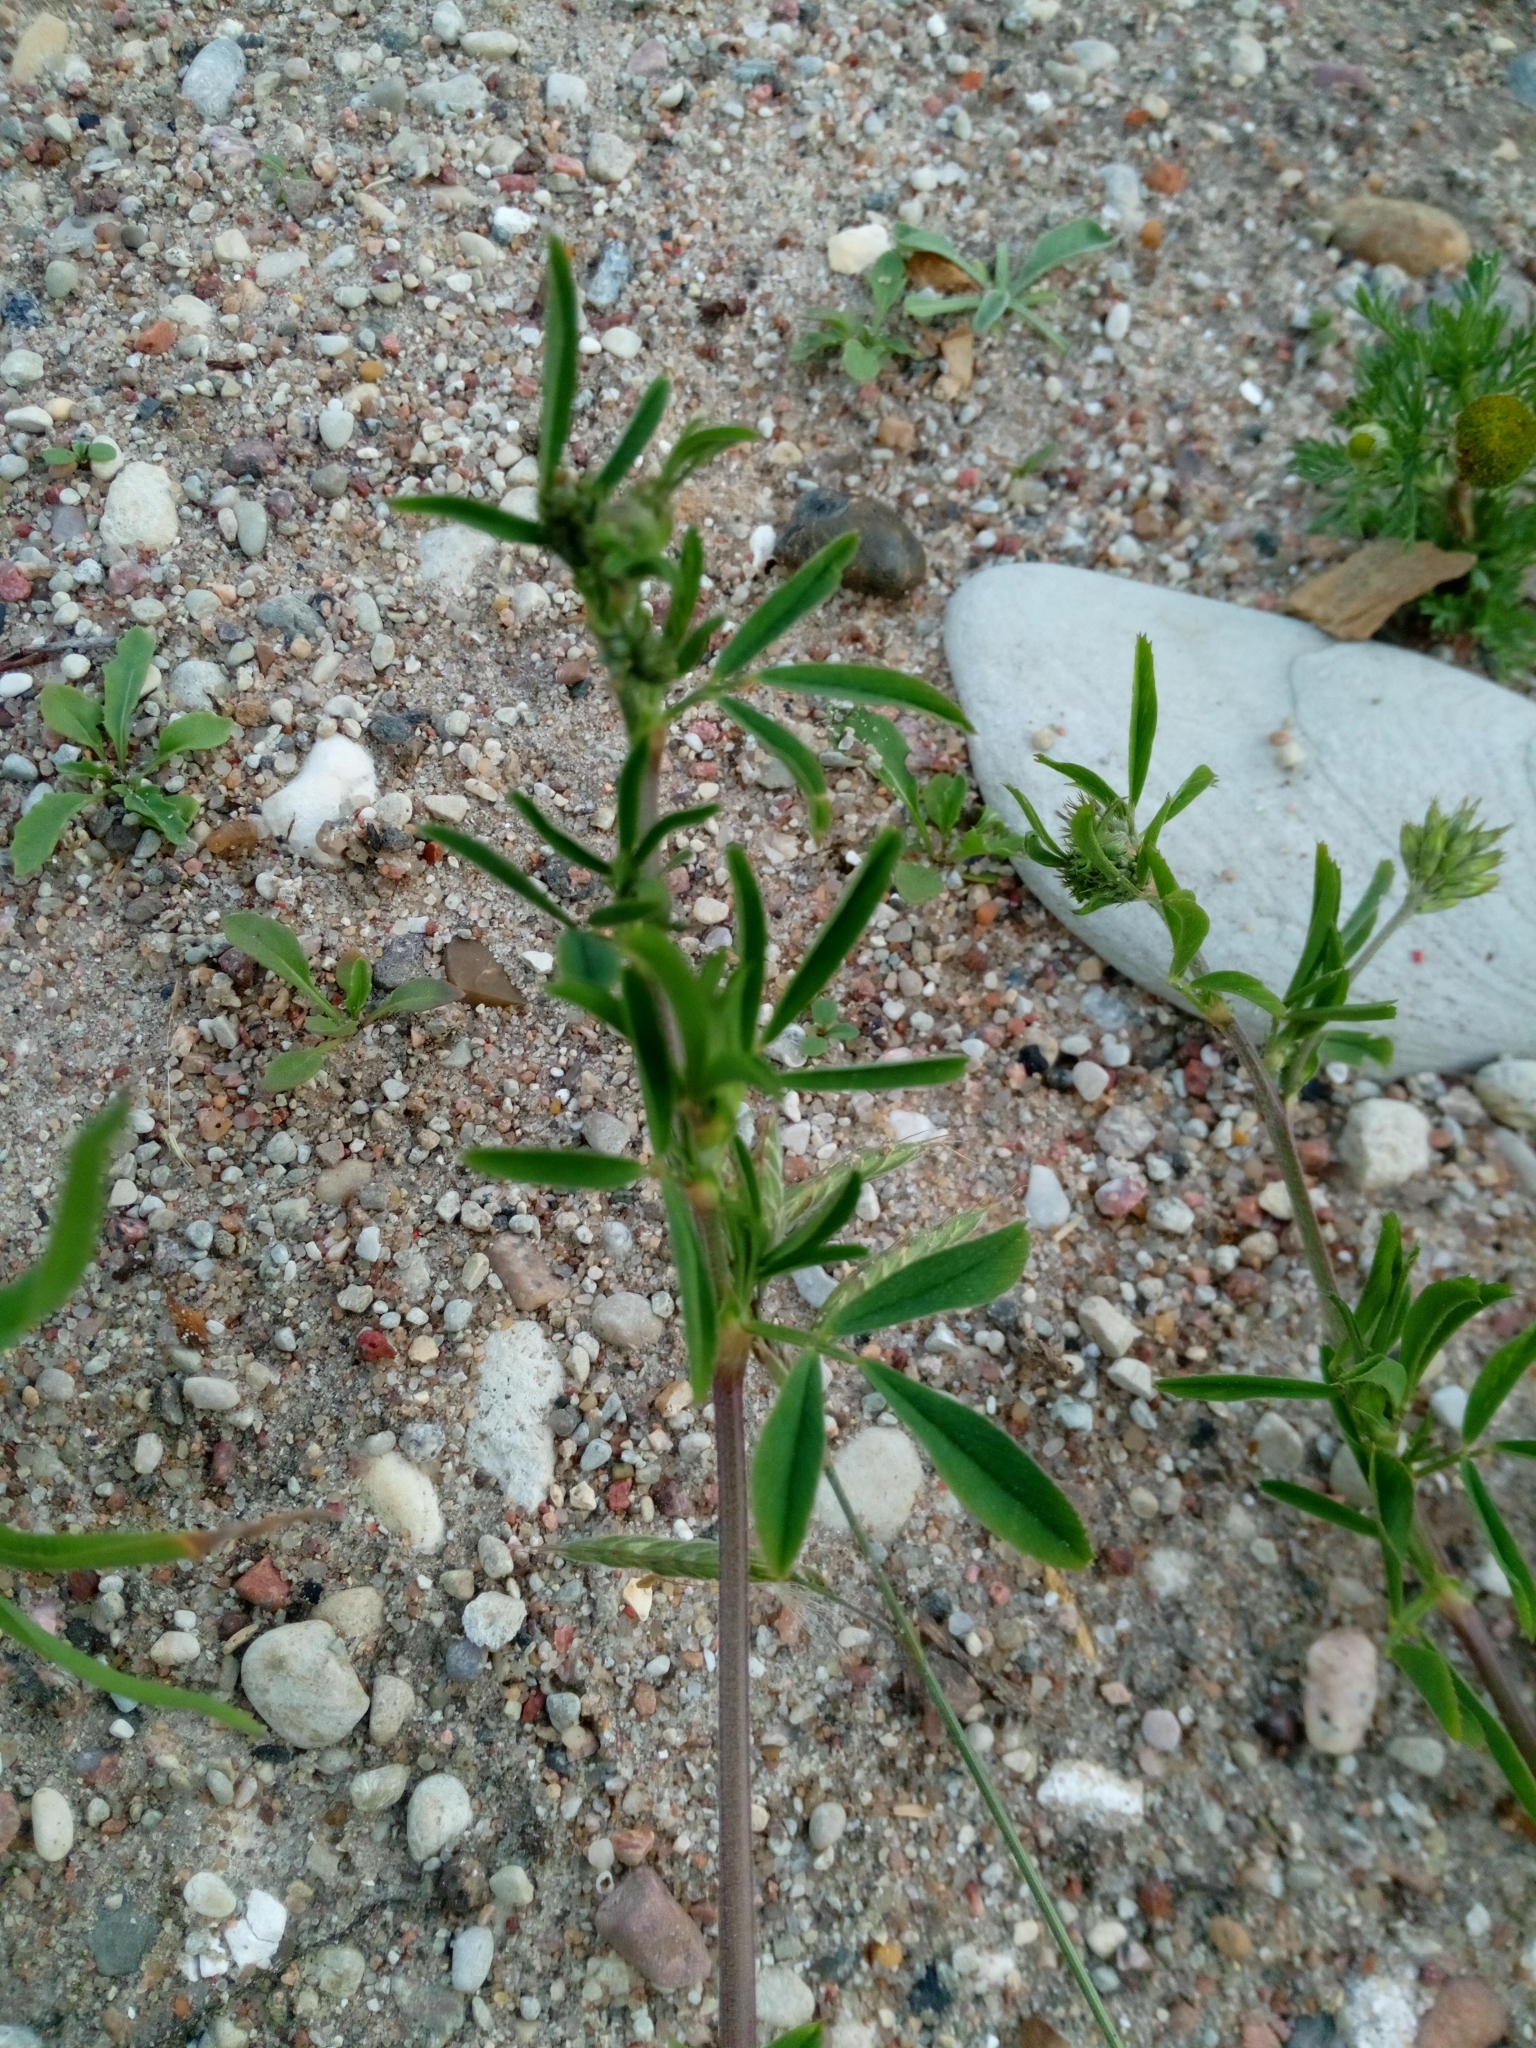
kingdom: Plantae
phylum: Tracheophyta
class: Magnoliopsida
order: Fabales
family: Fabaceae
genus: Medicago
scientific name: Medicago falcata
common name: Sickle medick
